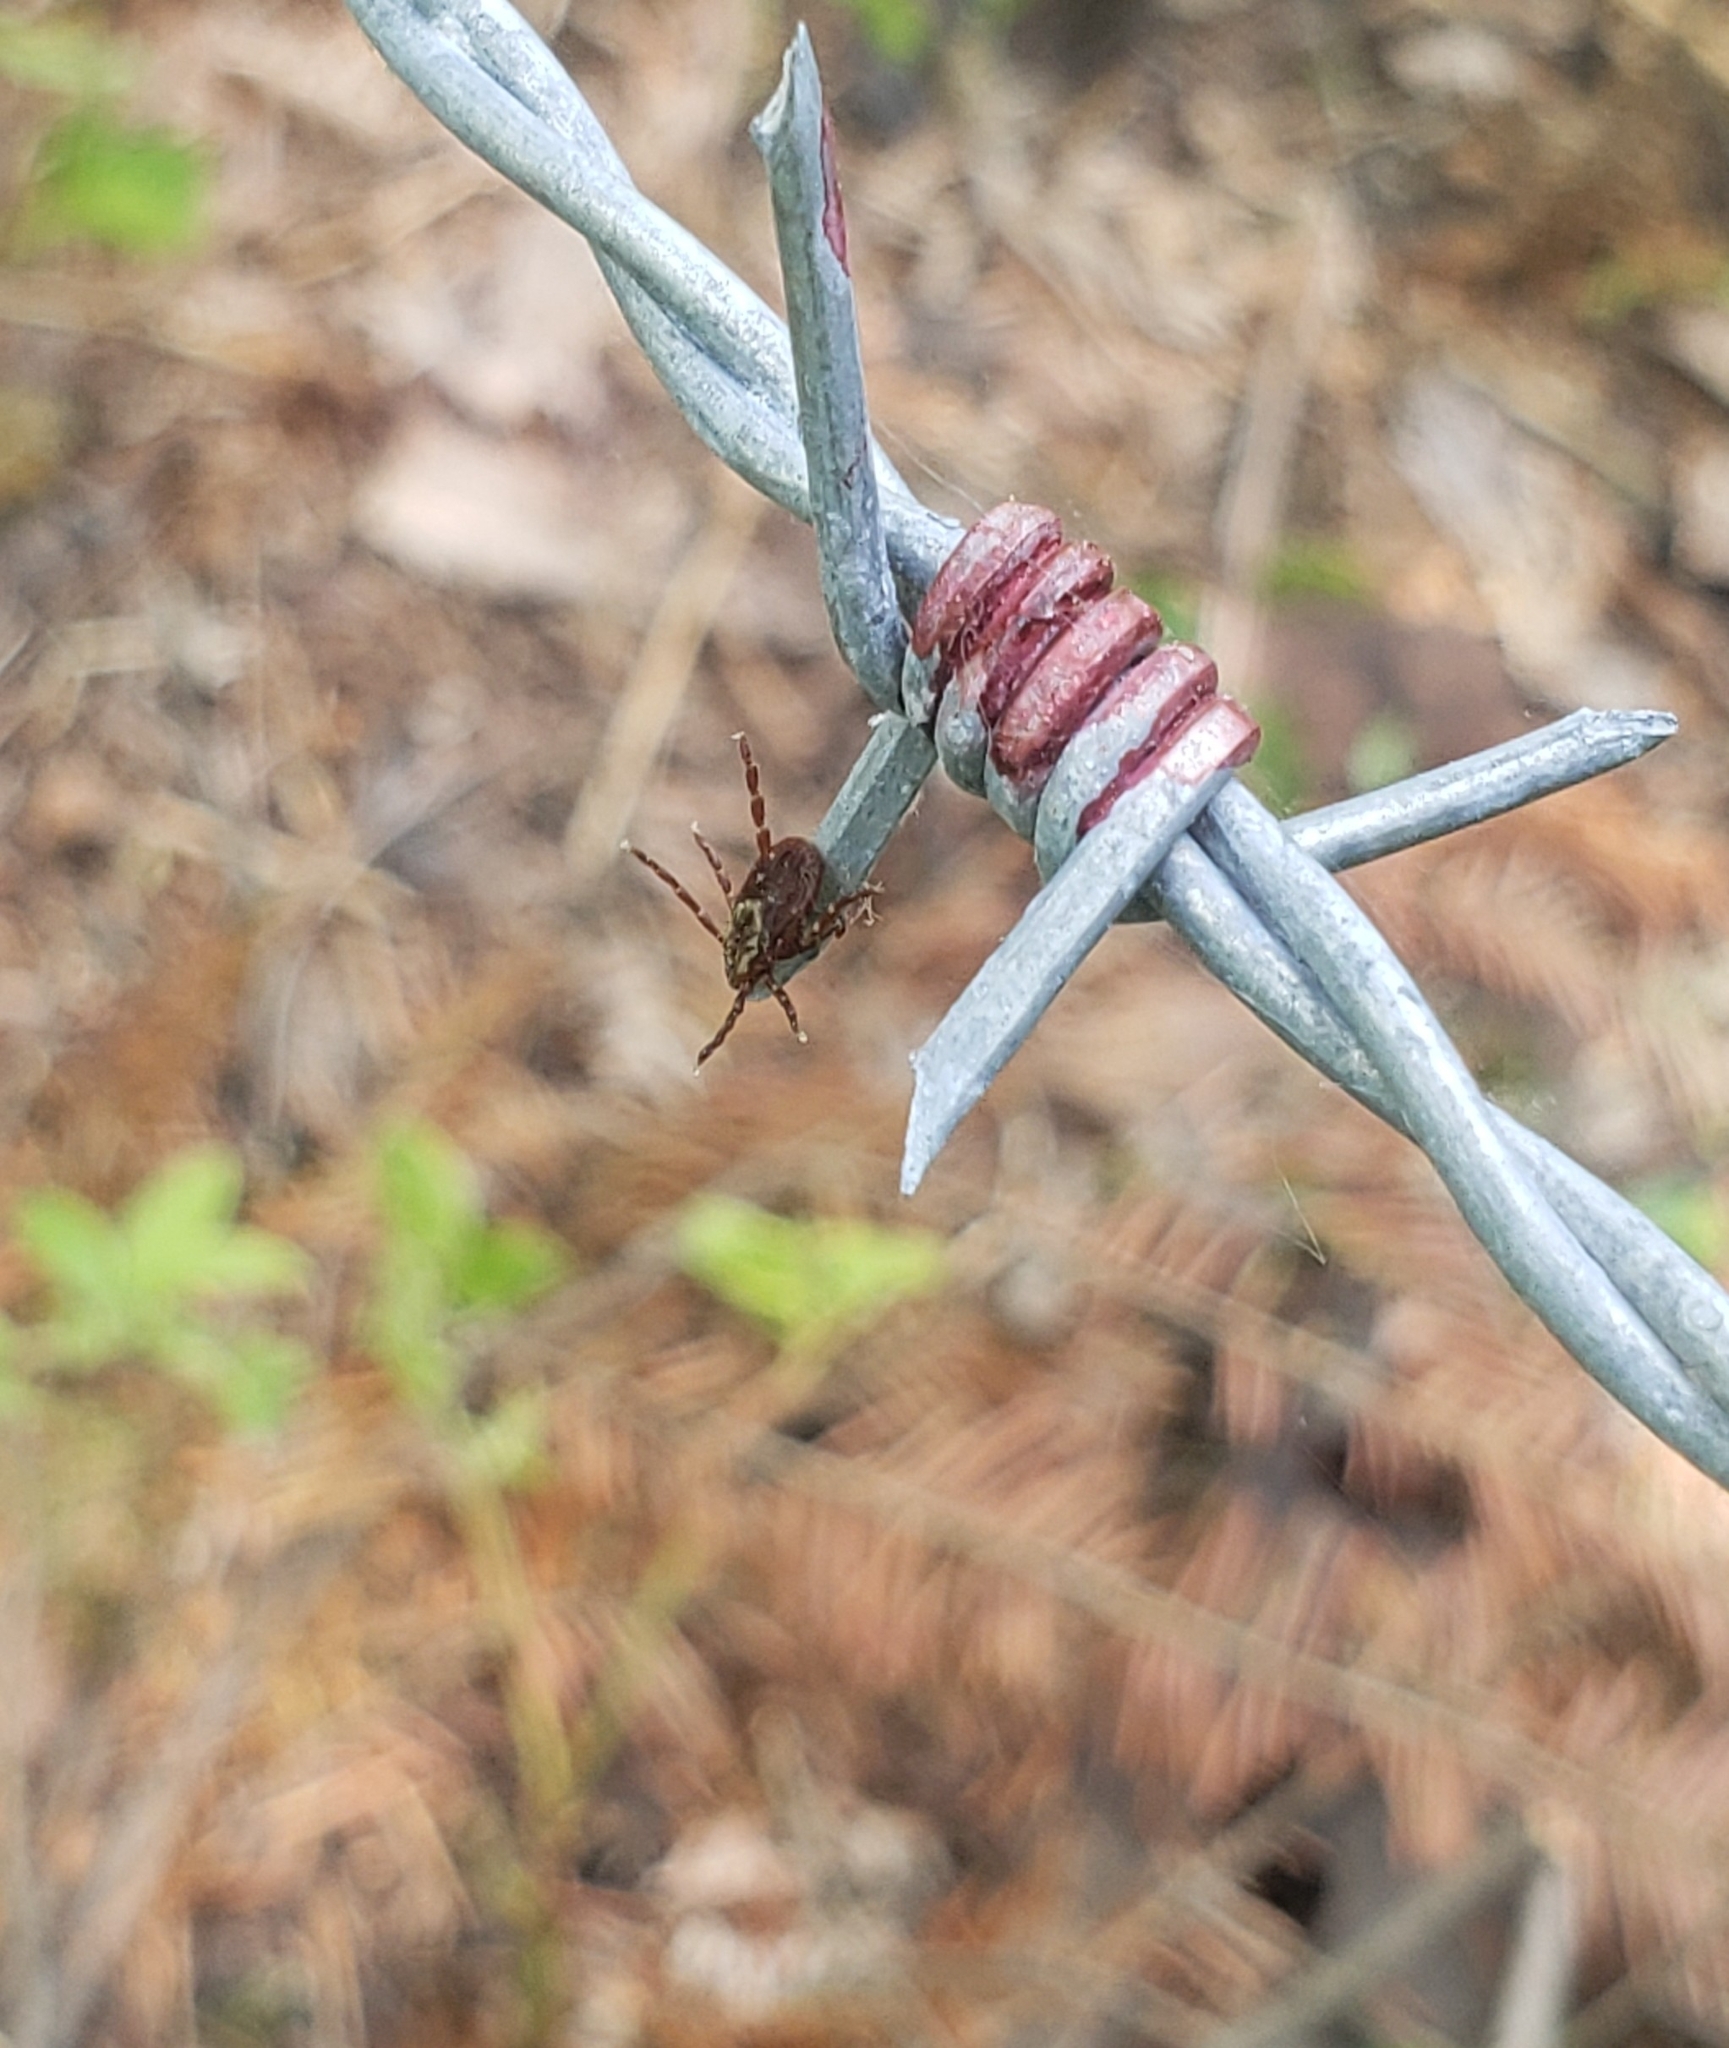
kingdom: Animalia
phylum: Arthropoda
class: Arachnida
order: Ixodida
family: Ixodidae
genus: Dermacentor
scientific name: Dermacentor variabilis
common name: American dog tick
